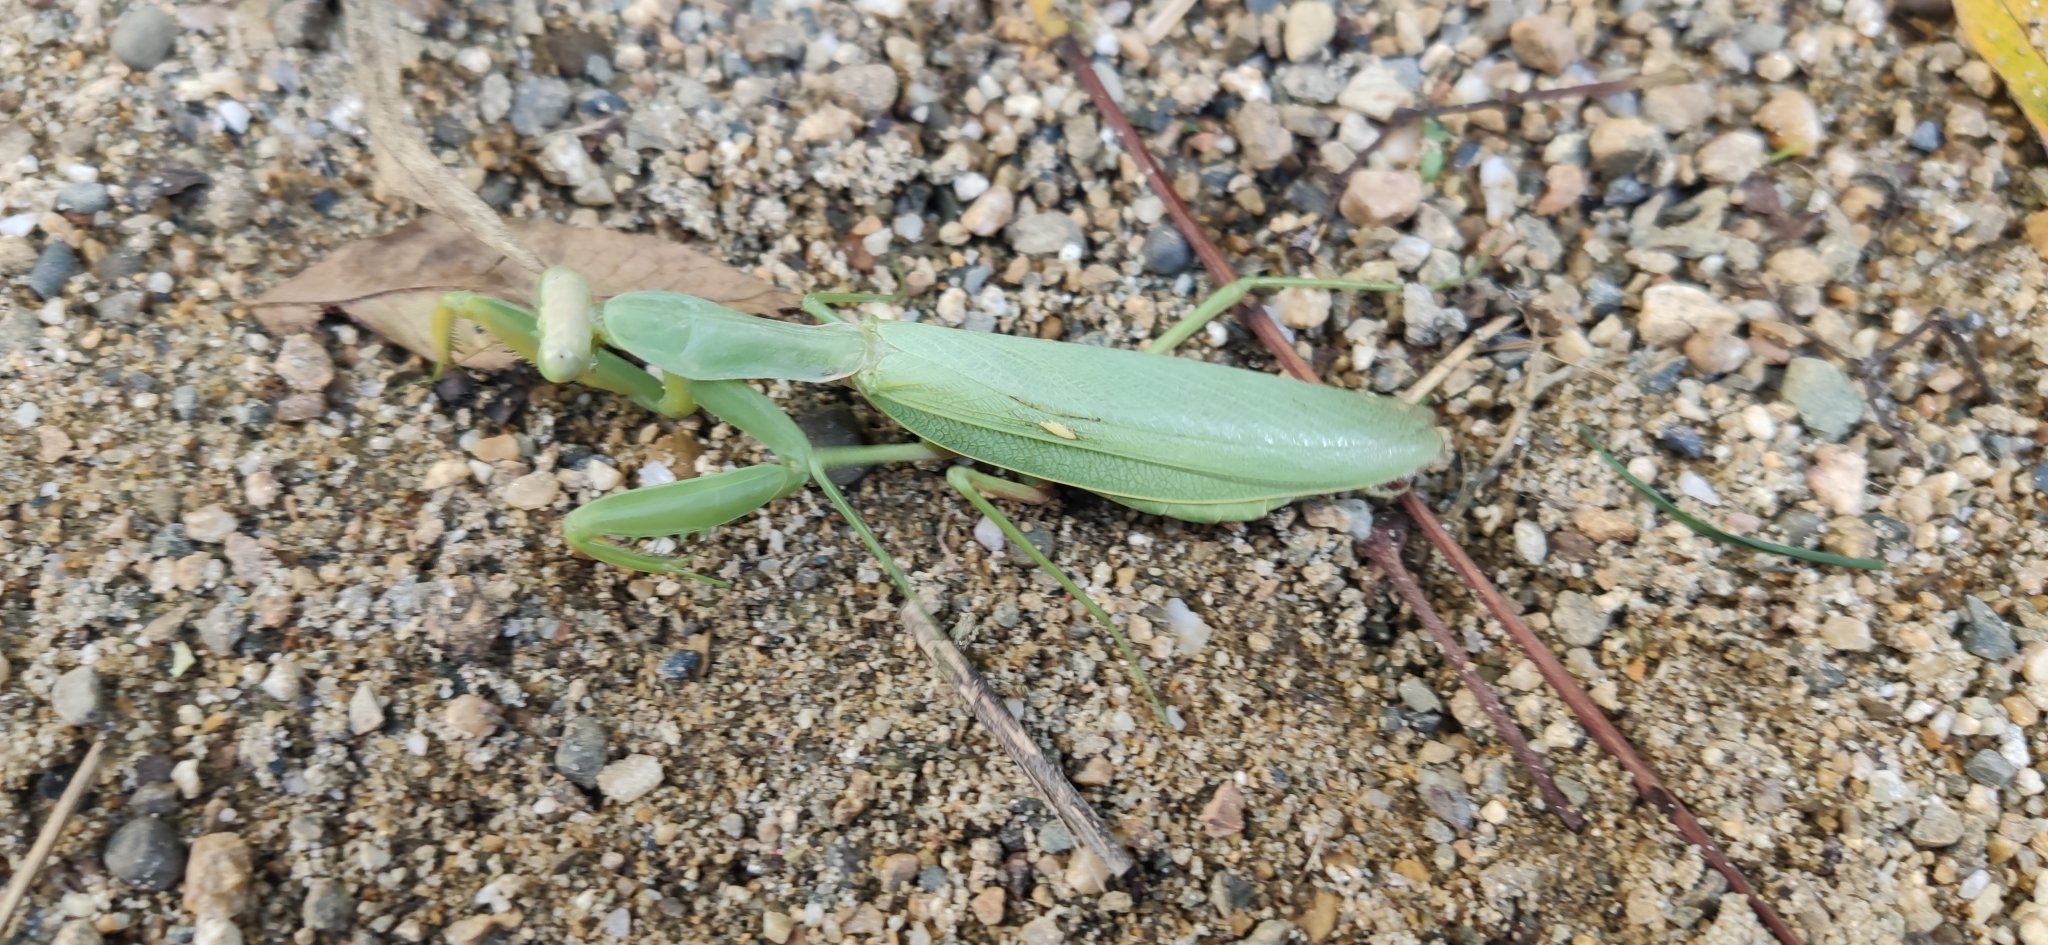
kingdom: Animalia
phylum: Arthropoda
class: Insecta
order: Mantodea
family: Mantidae
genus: Hierodula
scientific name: Hierodula transcaucasica
